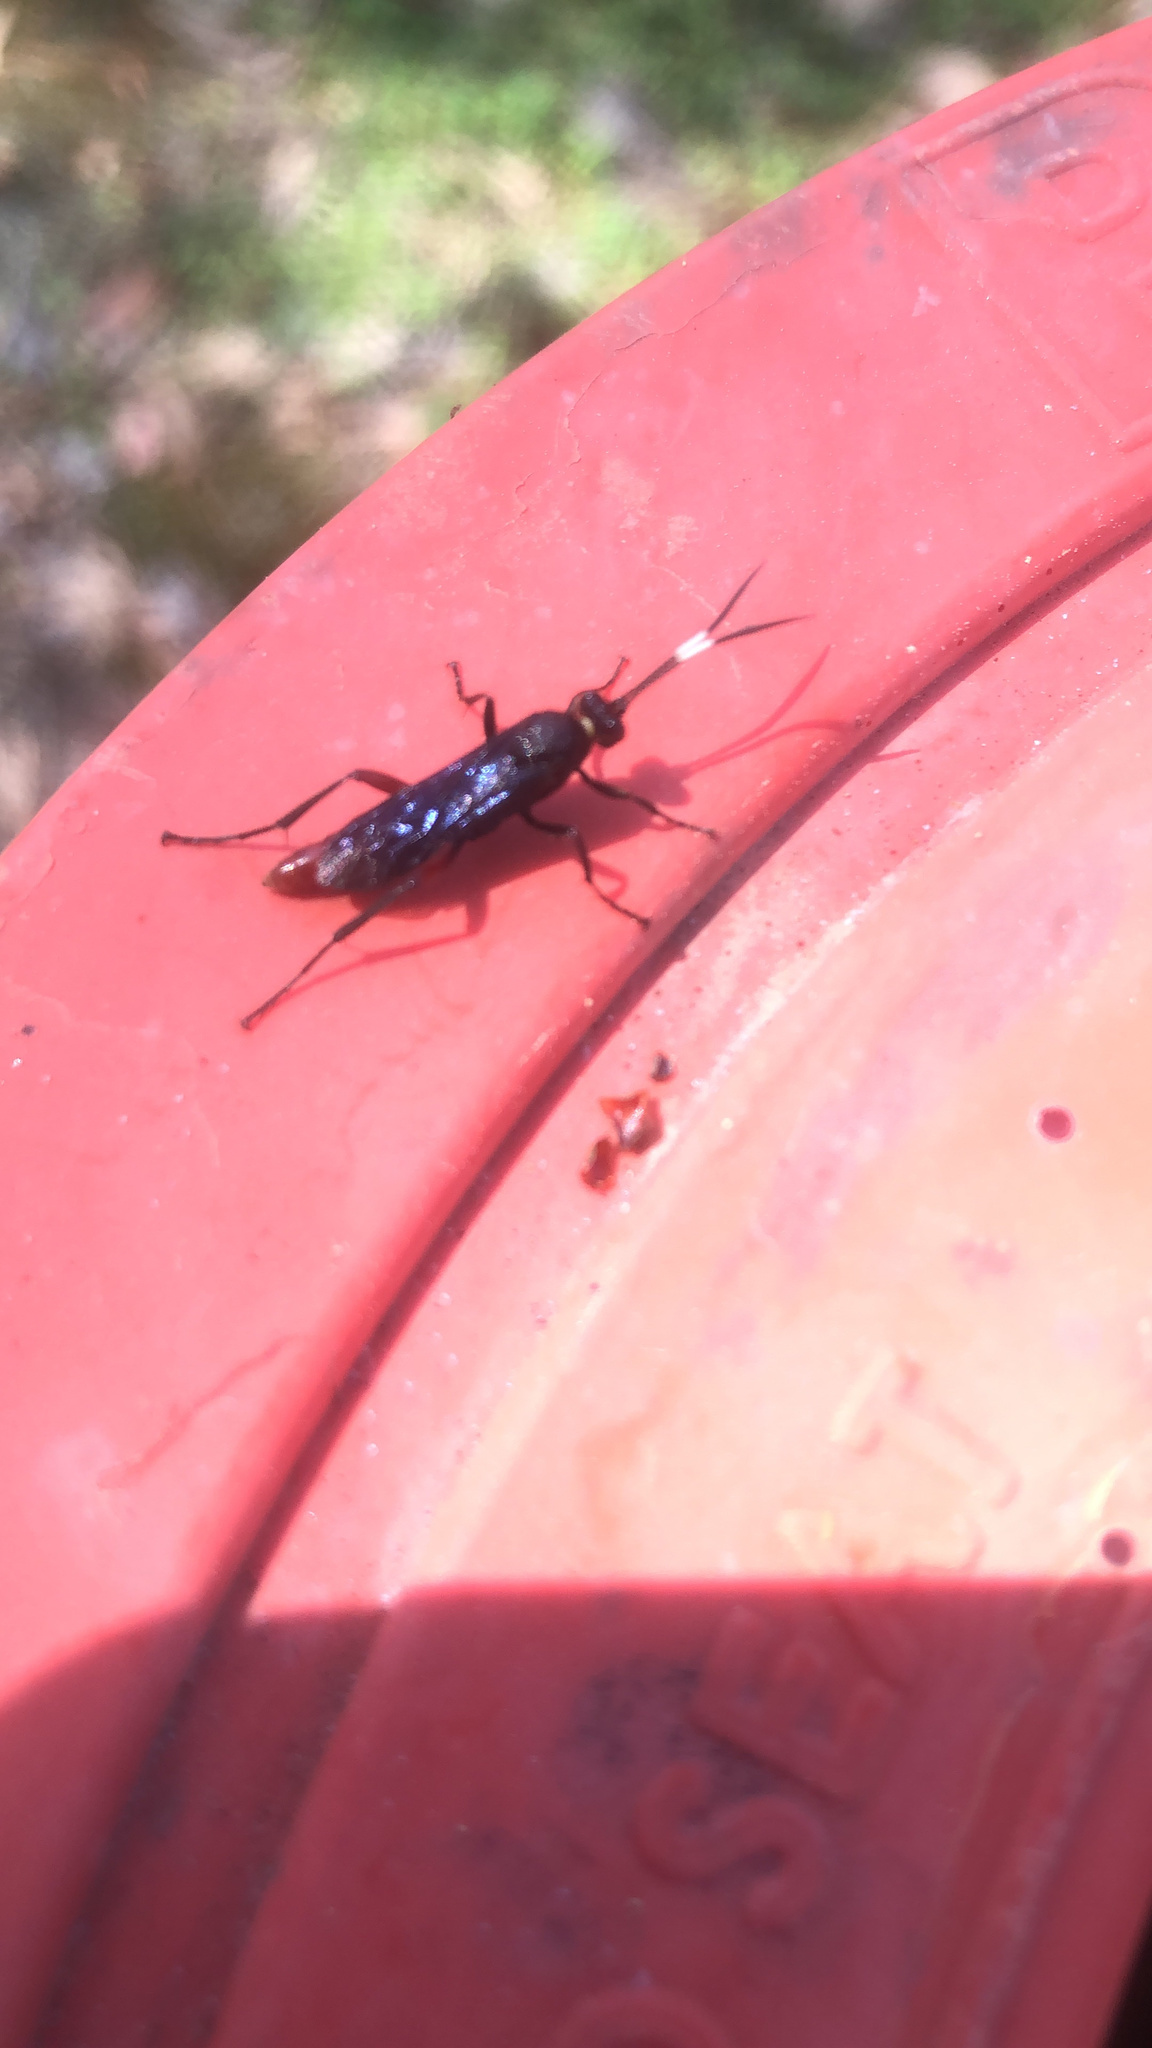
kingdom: Animalia
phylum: Arthropoda
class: Insecta
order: Hymenoptera
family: Ichneumonidae
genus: Limonethe
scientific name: Limonethe maurator
